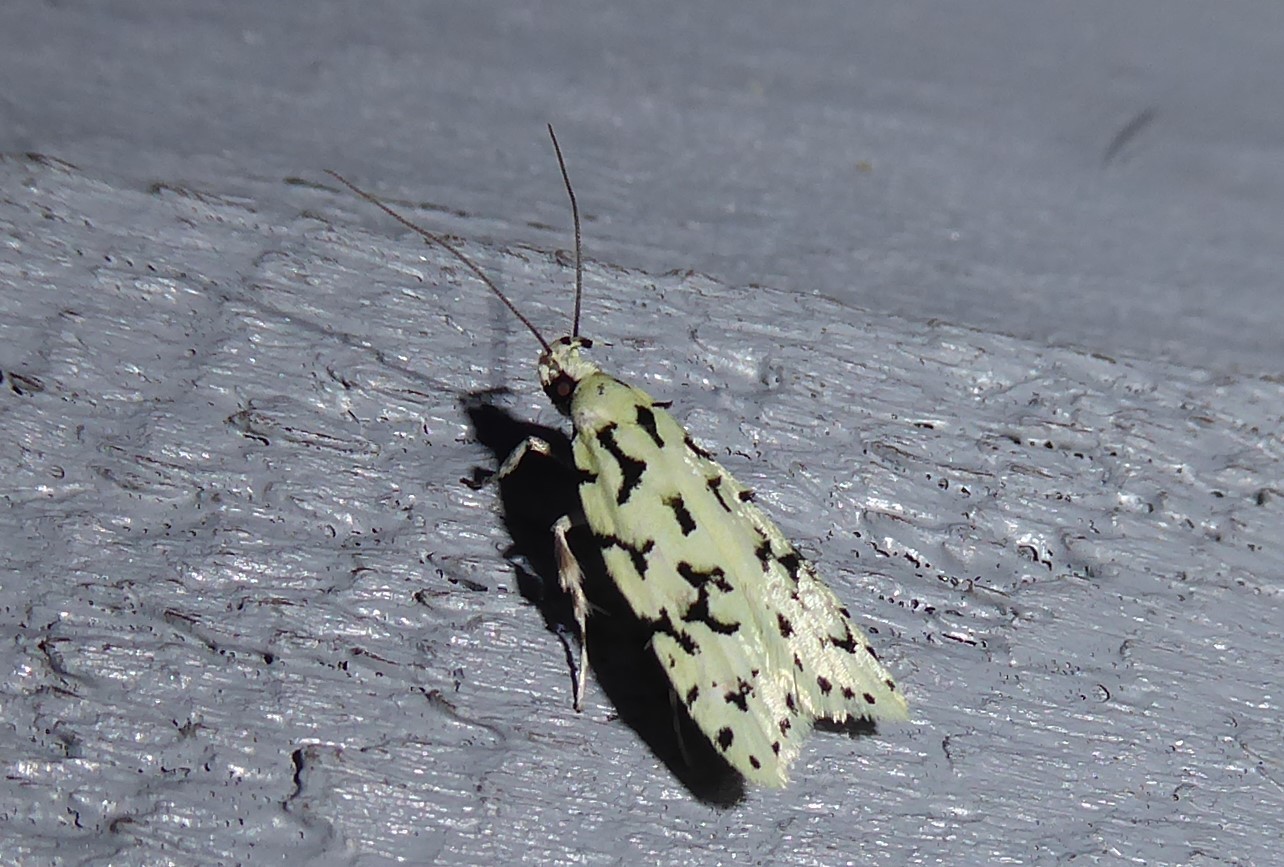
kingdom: Animalia
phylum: Arthropoda
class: Insecta
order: Lepidoptera
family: Oecophoridae
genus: Izatha
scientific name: Izatha huttoni
